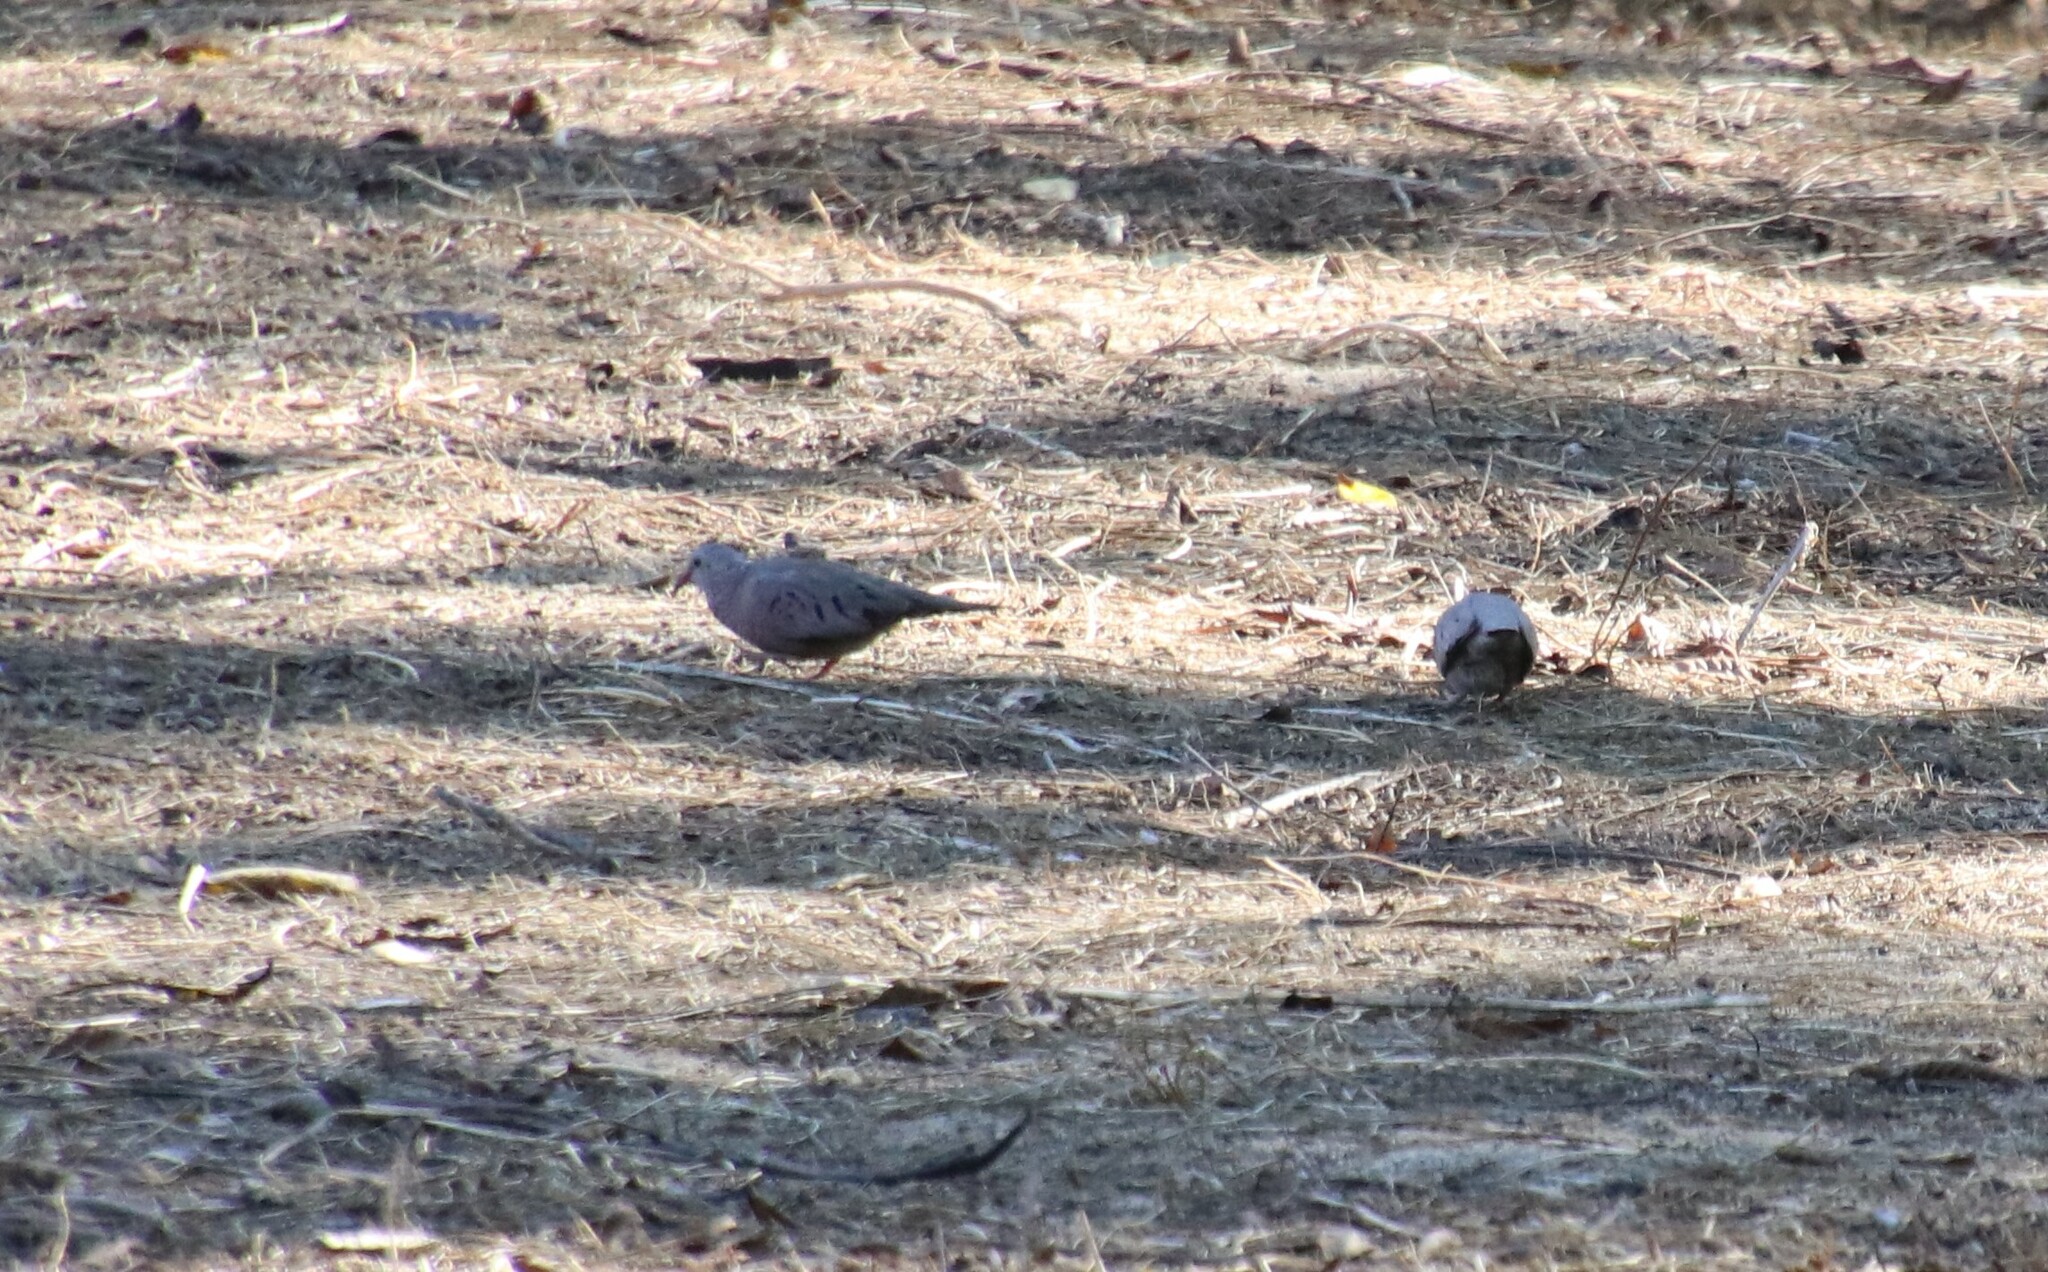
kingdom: Animalia
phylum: Chordata
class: Aves
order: Columbiformes
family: Columbidae
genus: Columbina
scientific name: Columbina passerina
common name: Common ground-dove
